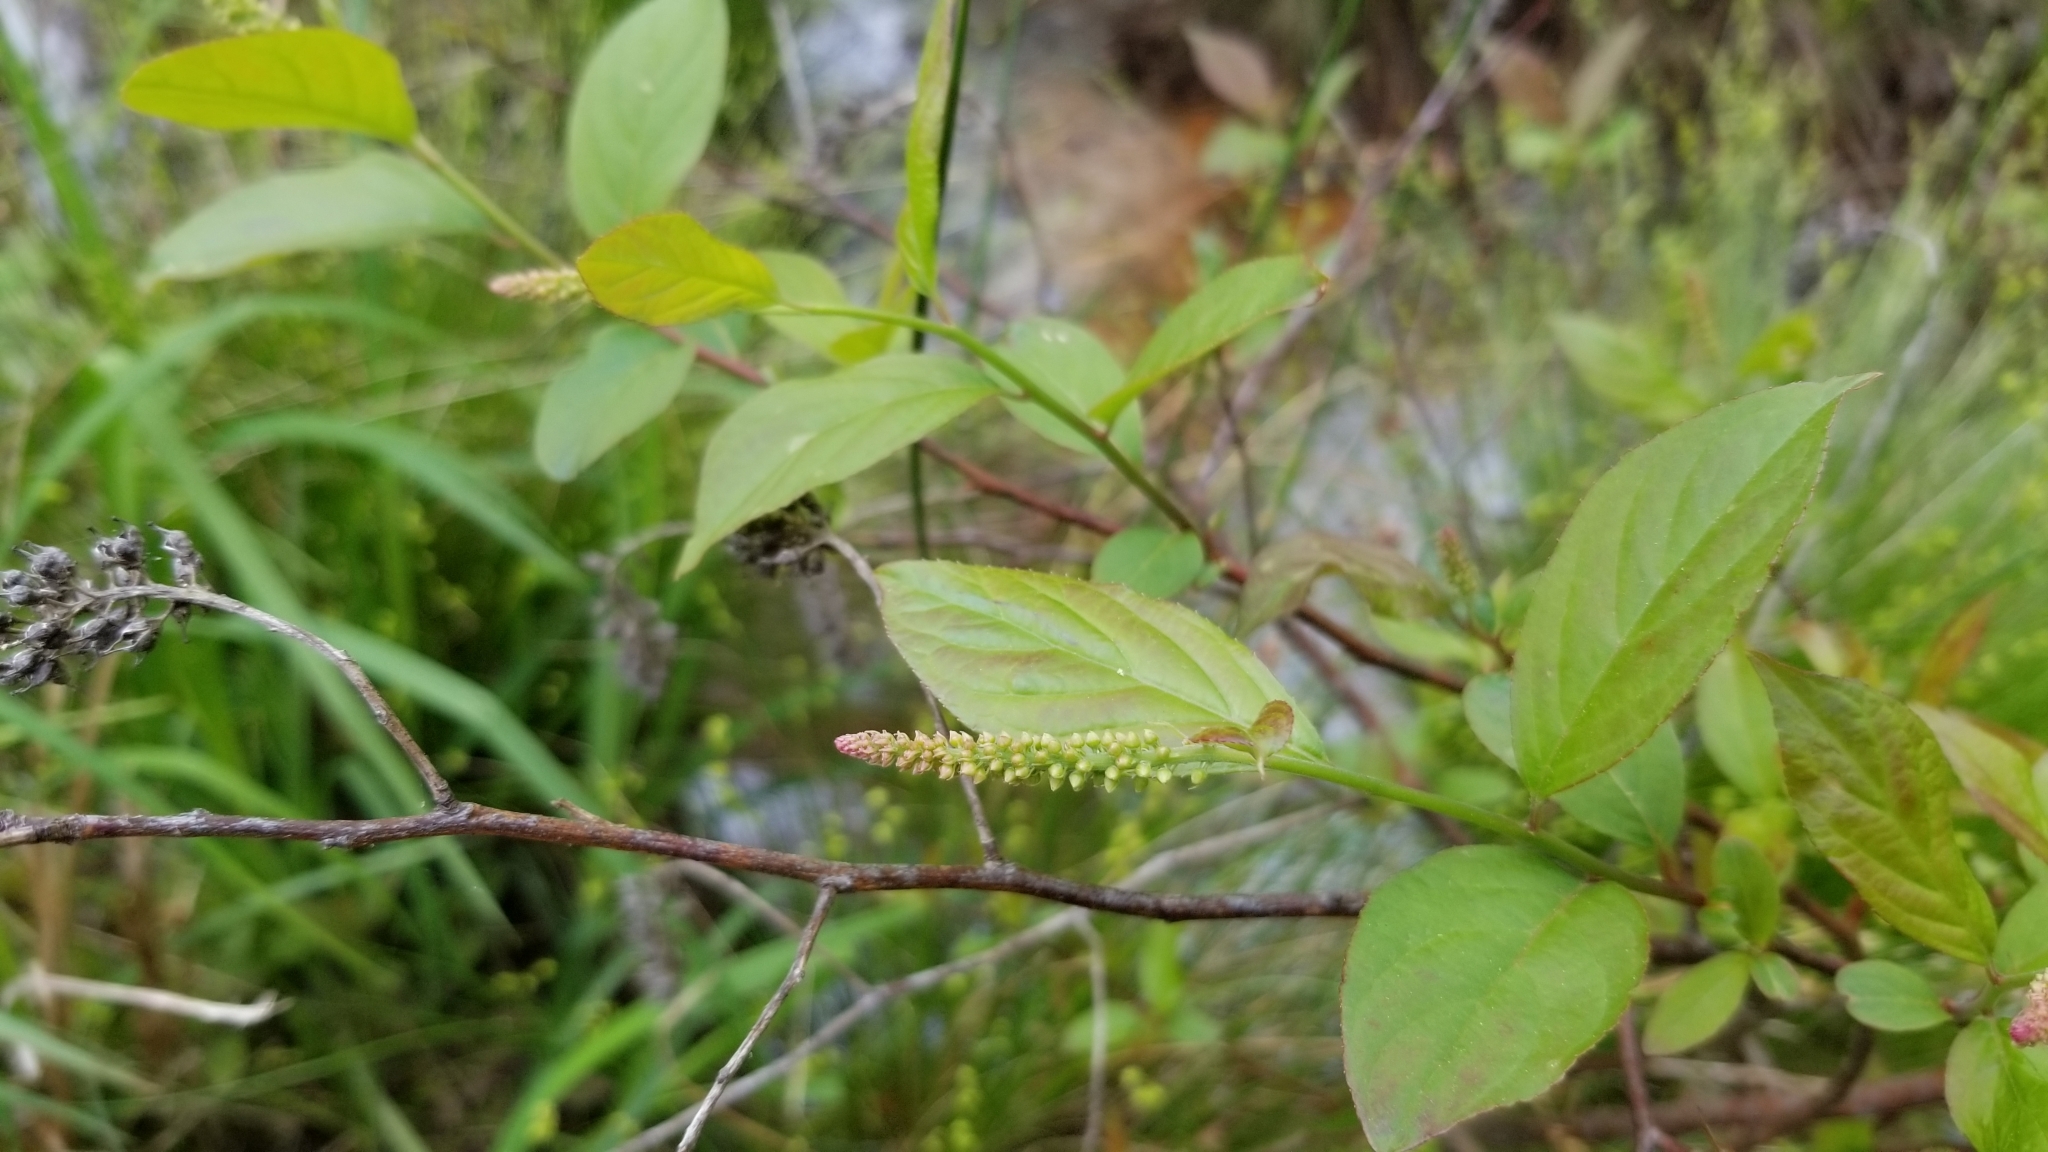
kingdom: Plantae
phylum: Tracheophyta
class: Magnoliopsida
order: Saxifragales
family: Iteaceae
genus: Itea
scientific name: Itea virginica
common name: Sweetspire
